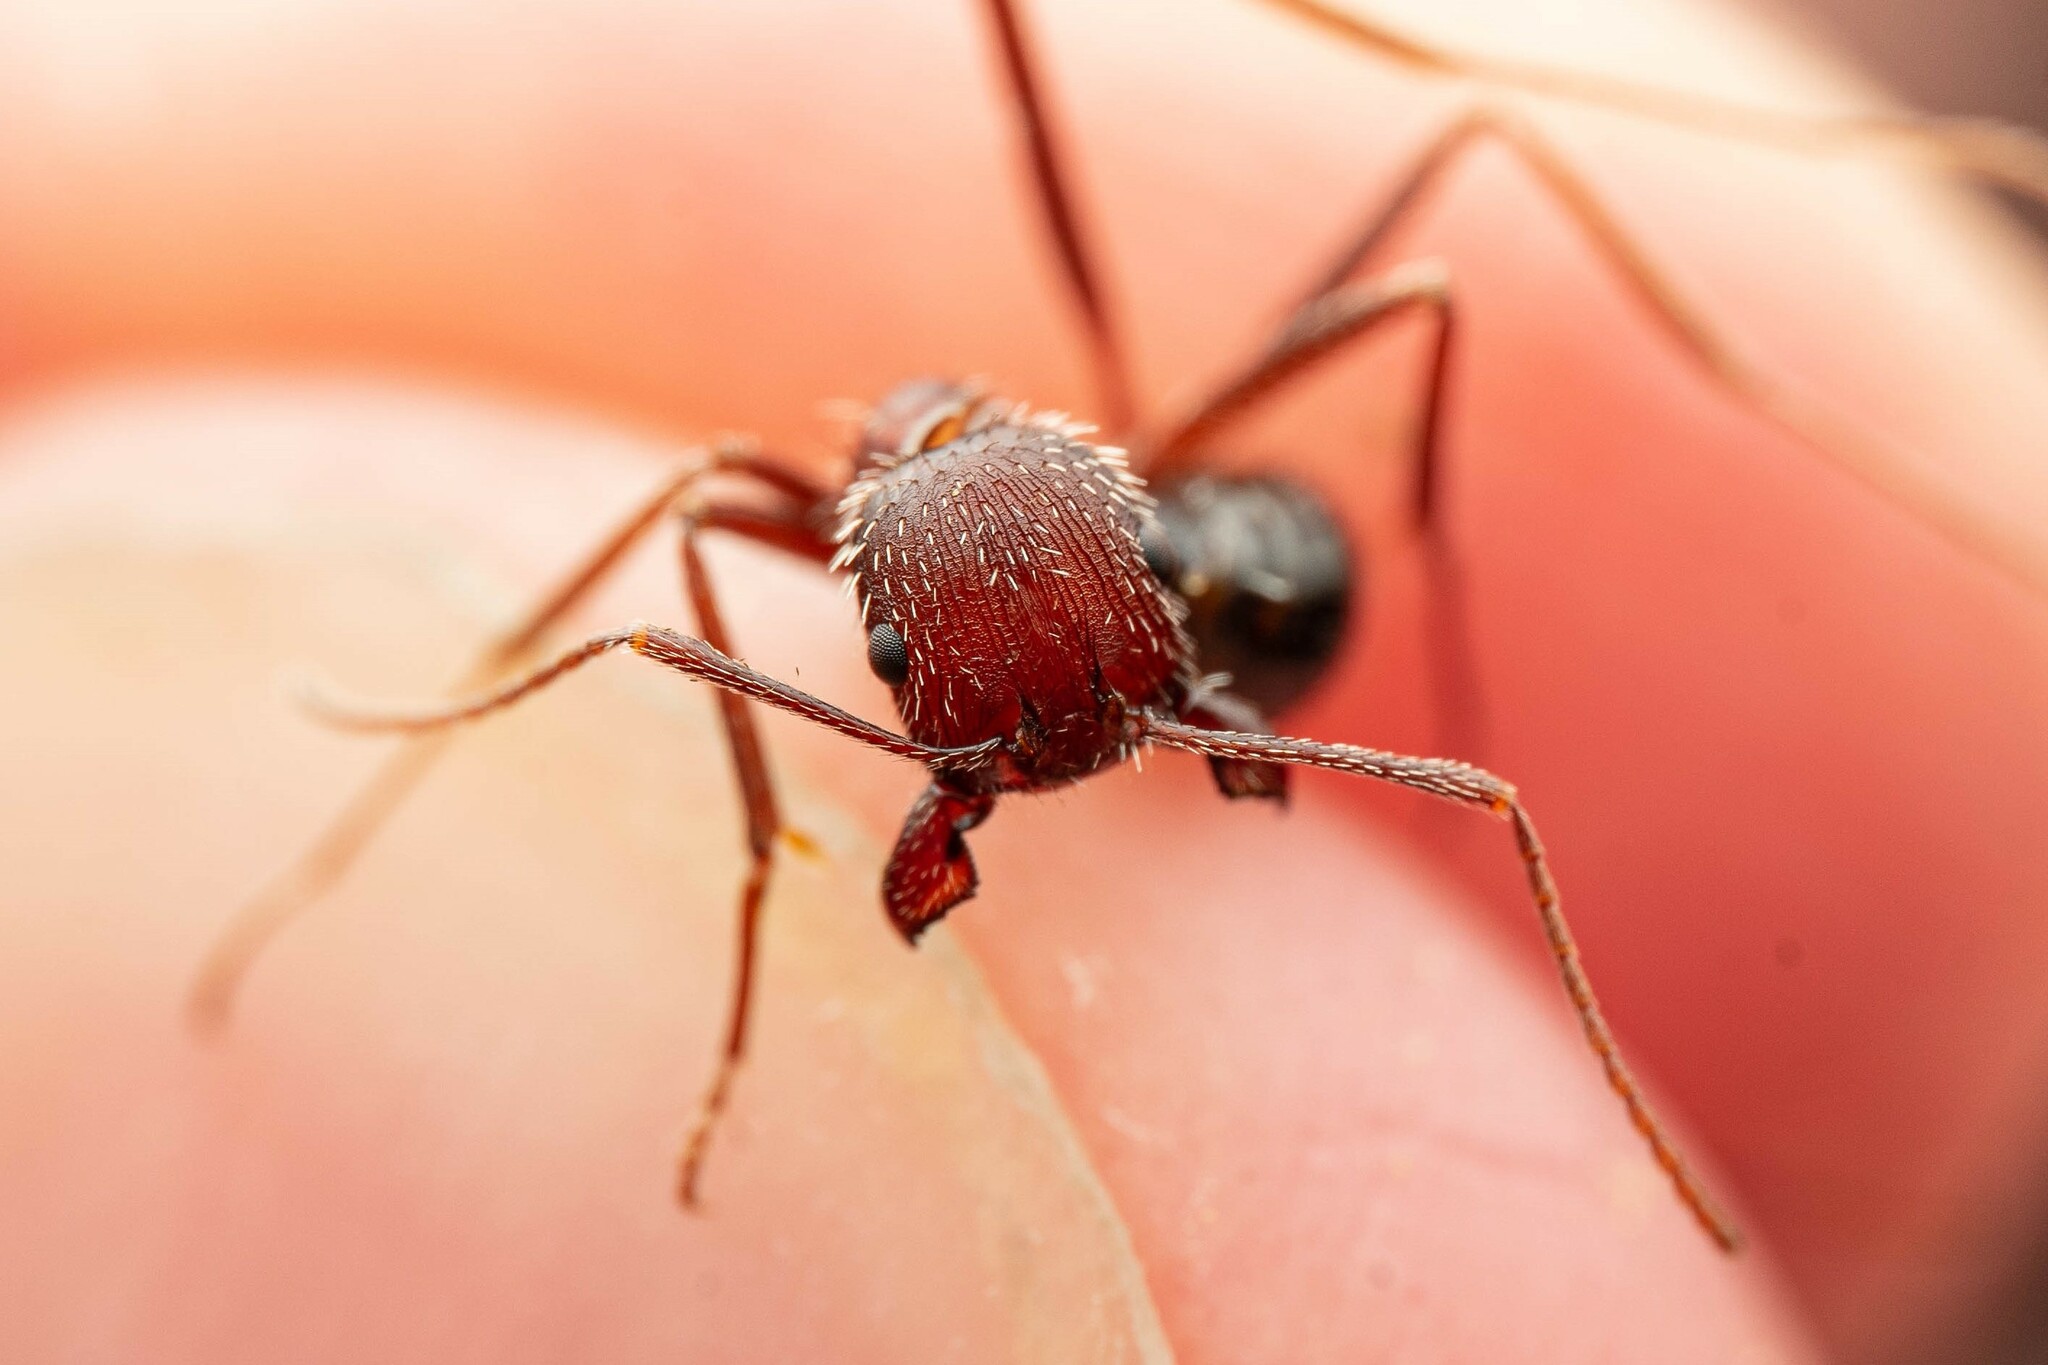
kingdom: Animalia
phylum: Arthropoda
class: Insecta
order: Hymenoptera
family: Formicidae
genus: Novomessor
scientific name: Novomessor albisetosa
